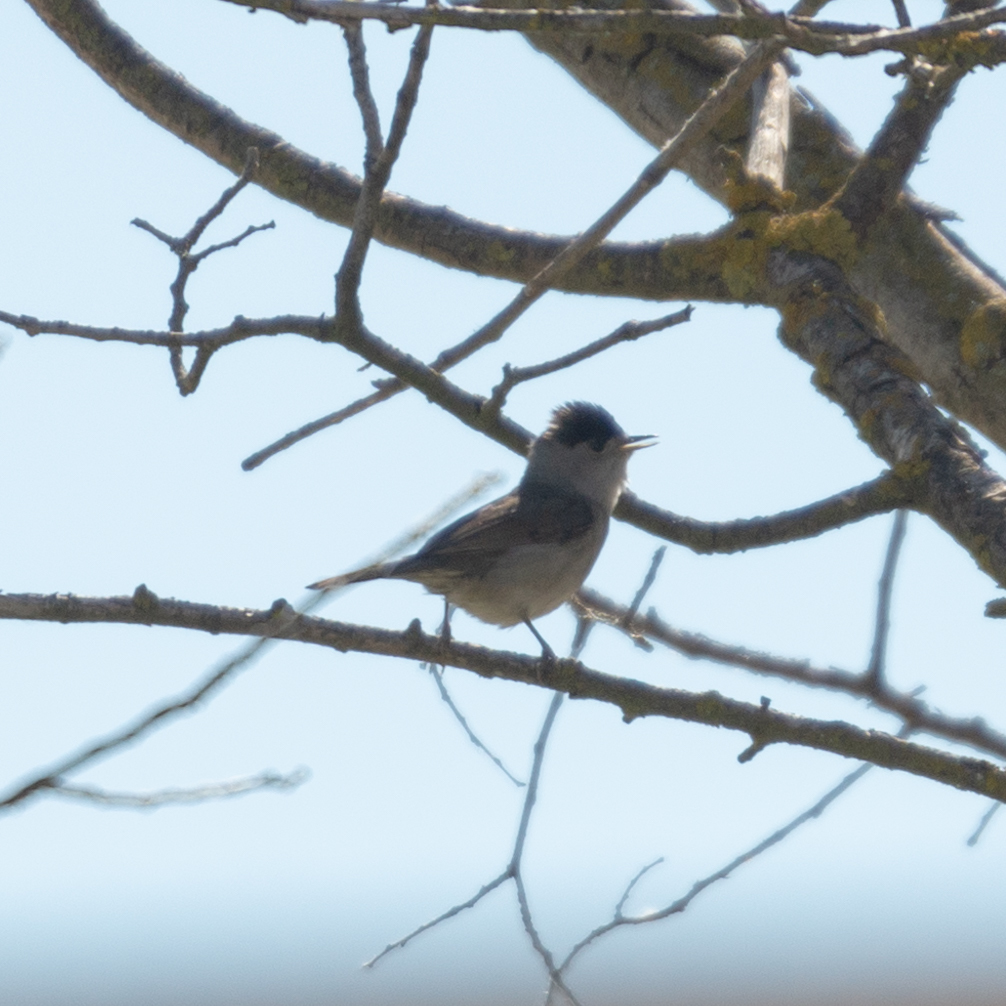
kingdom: Animalia
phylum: Chordata
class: Aves
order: Passeriformes
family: Sylviidae
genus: Sylvia
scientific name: Sylvia atricapilla
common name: Eurasian blackcap
